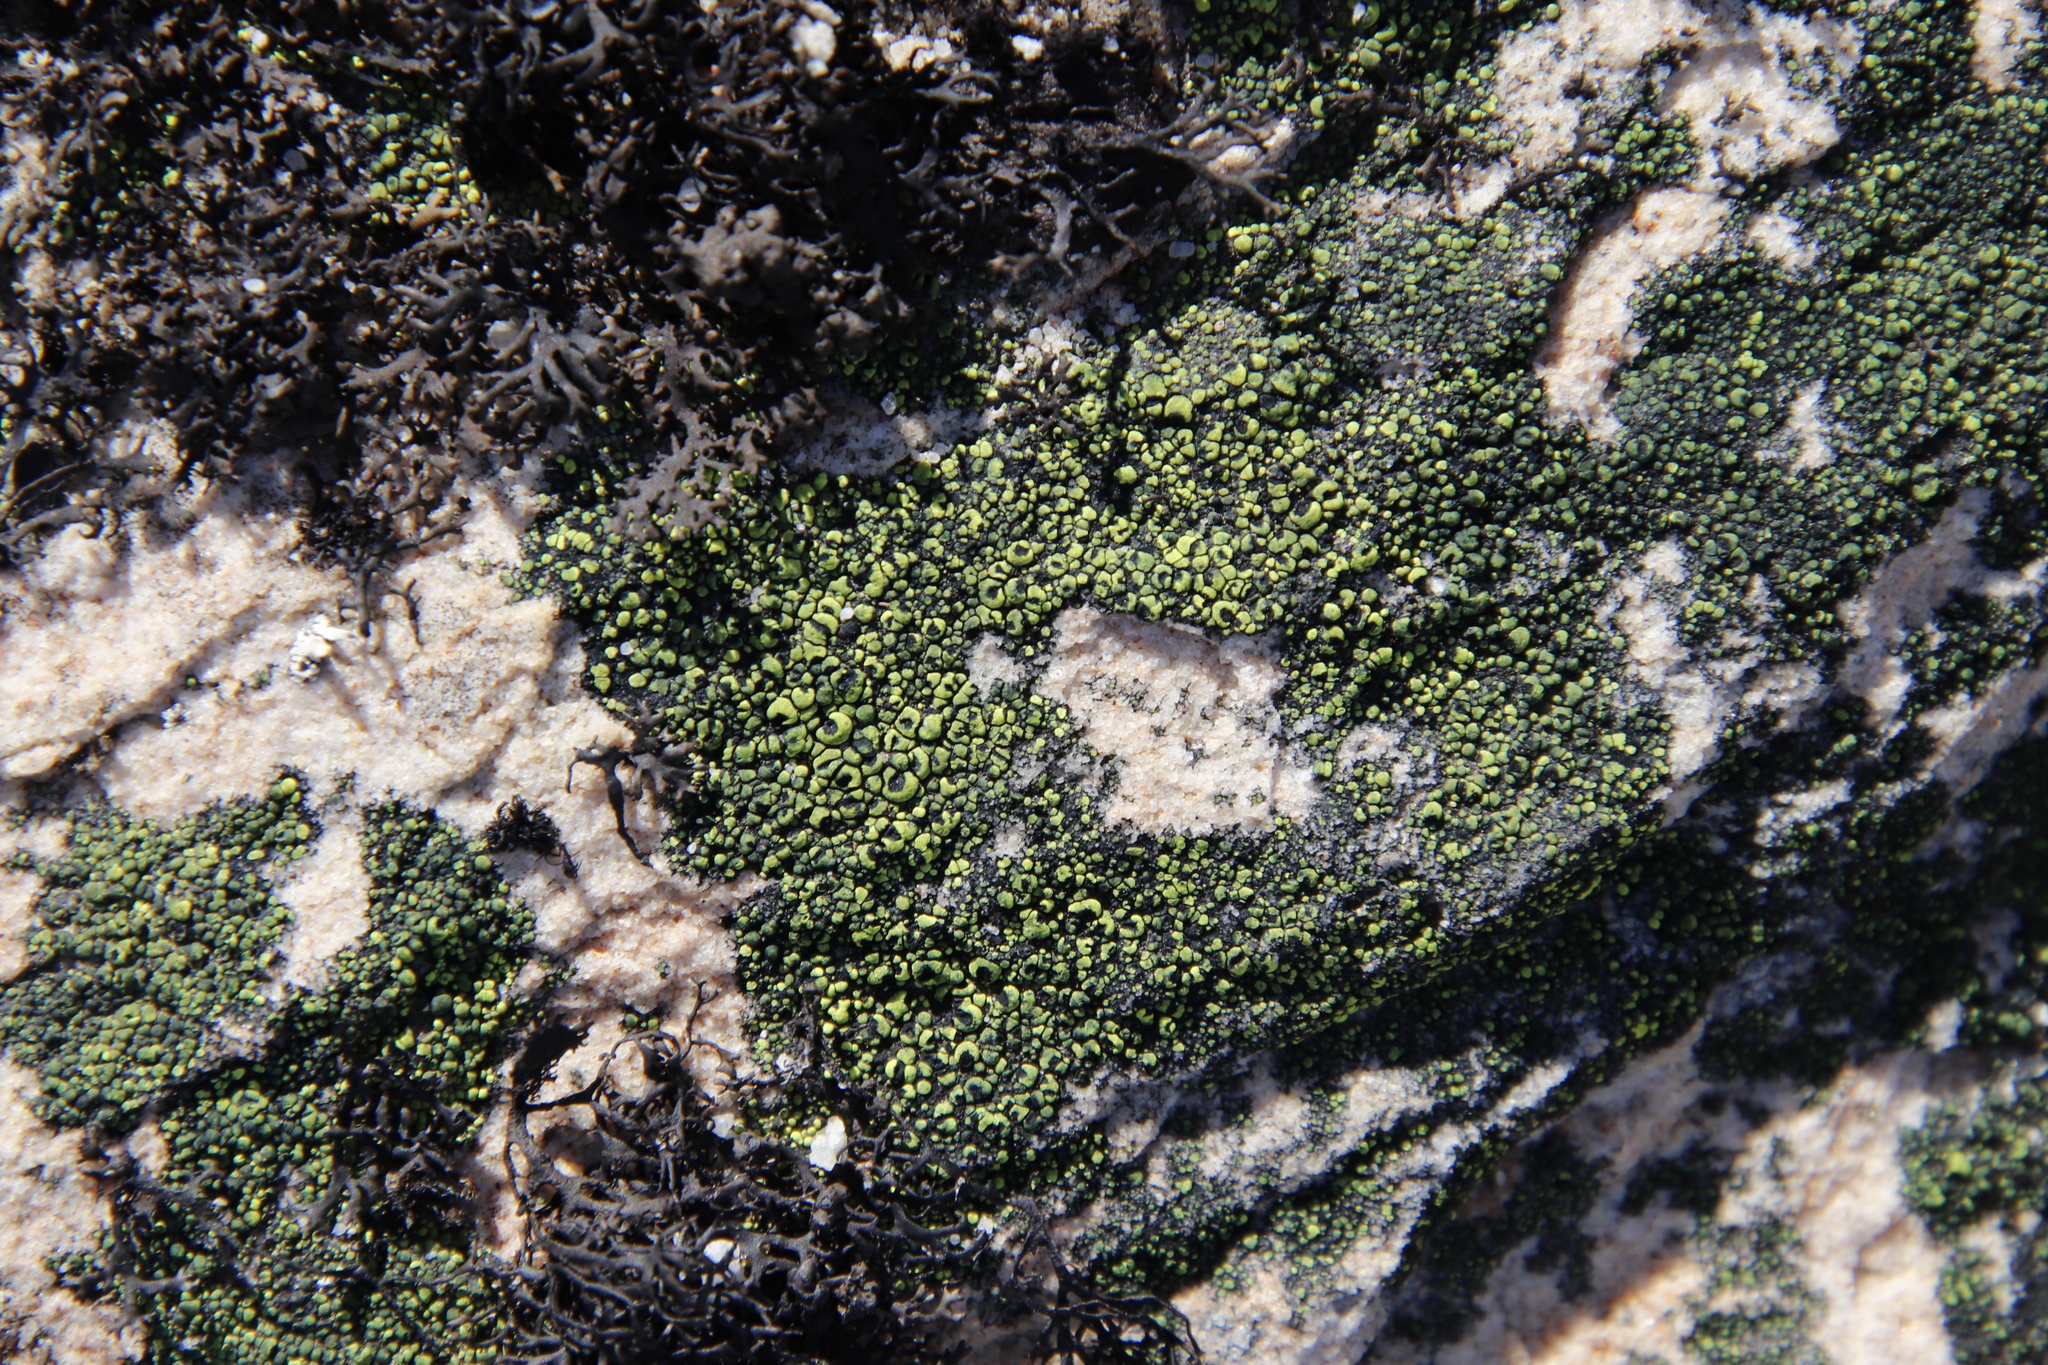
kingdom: Fungi
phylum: Ascomycota
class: Lecanoromycetes
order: Rhizocarpales
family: Rhizocarpaceae
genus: Rhizocarpon
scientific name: Rhizocarpon lecanorinum
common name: Crescent map lichen
